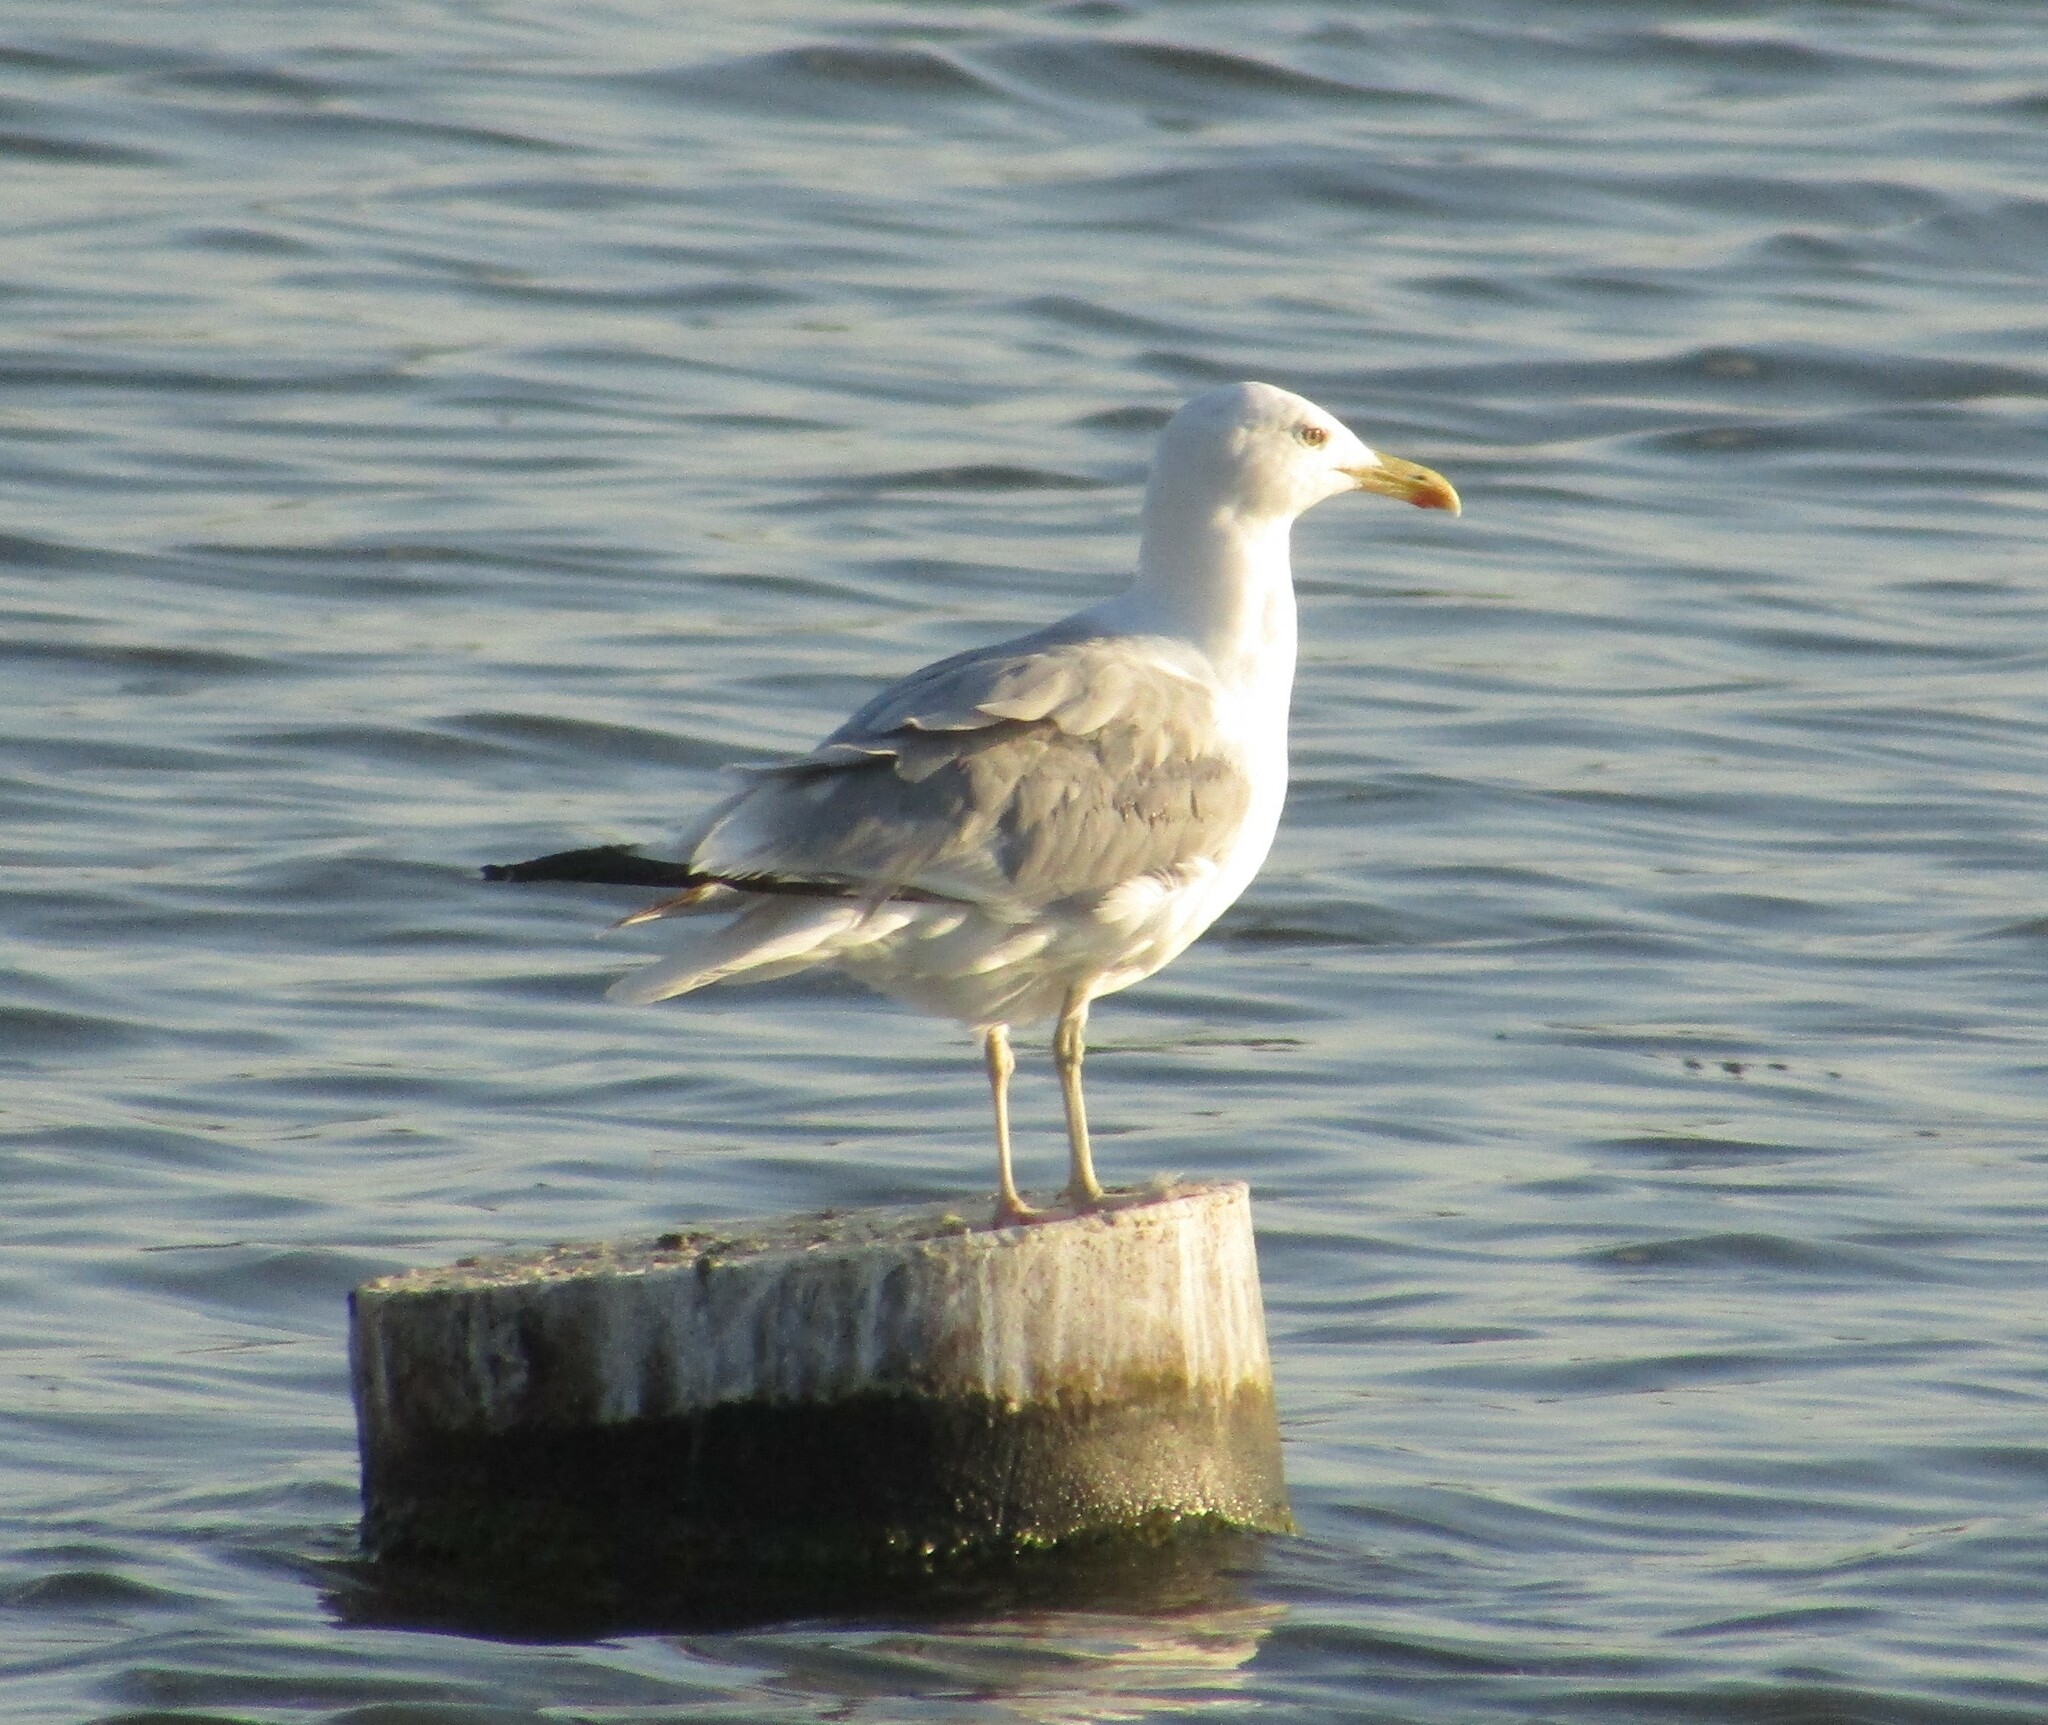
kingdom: Animalia
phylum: Chordata
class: Aves
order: Charadriiformes
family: Laridae
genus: Larus
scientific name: Larus cachinnans
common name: Caspian gull
